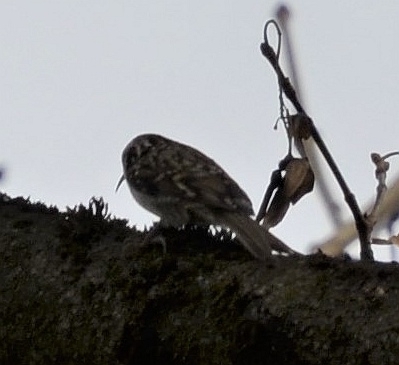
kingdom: Animalia
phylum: Chordata
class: Aves
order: Passeriformes
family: Certhiidae
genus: Certhia
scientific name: Certhia familiaris
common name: Eurasian treecreeper
